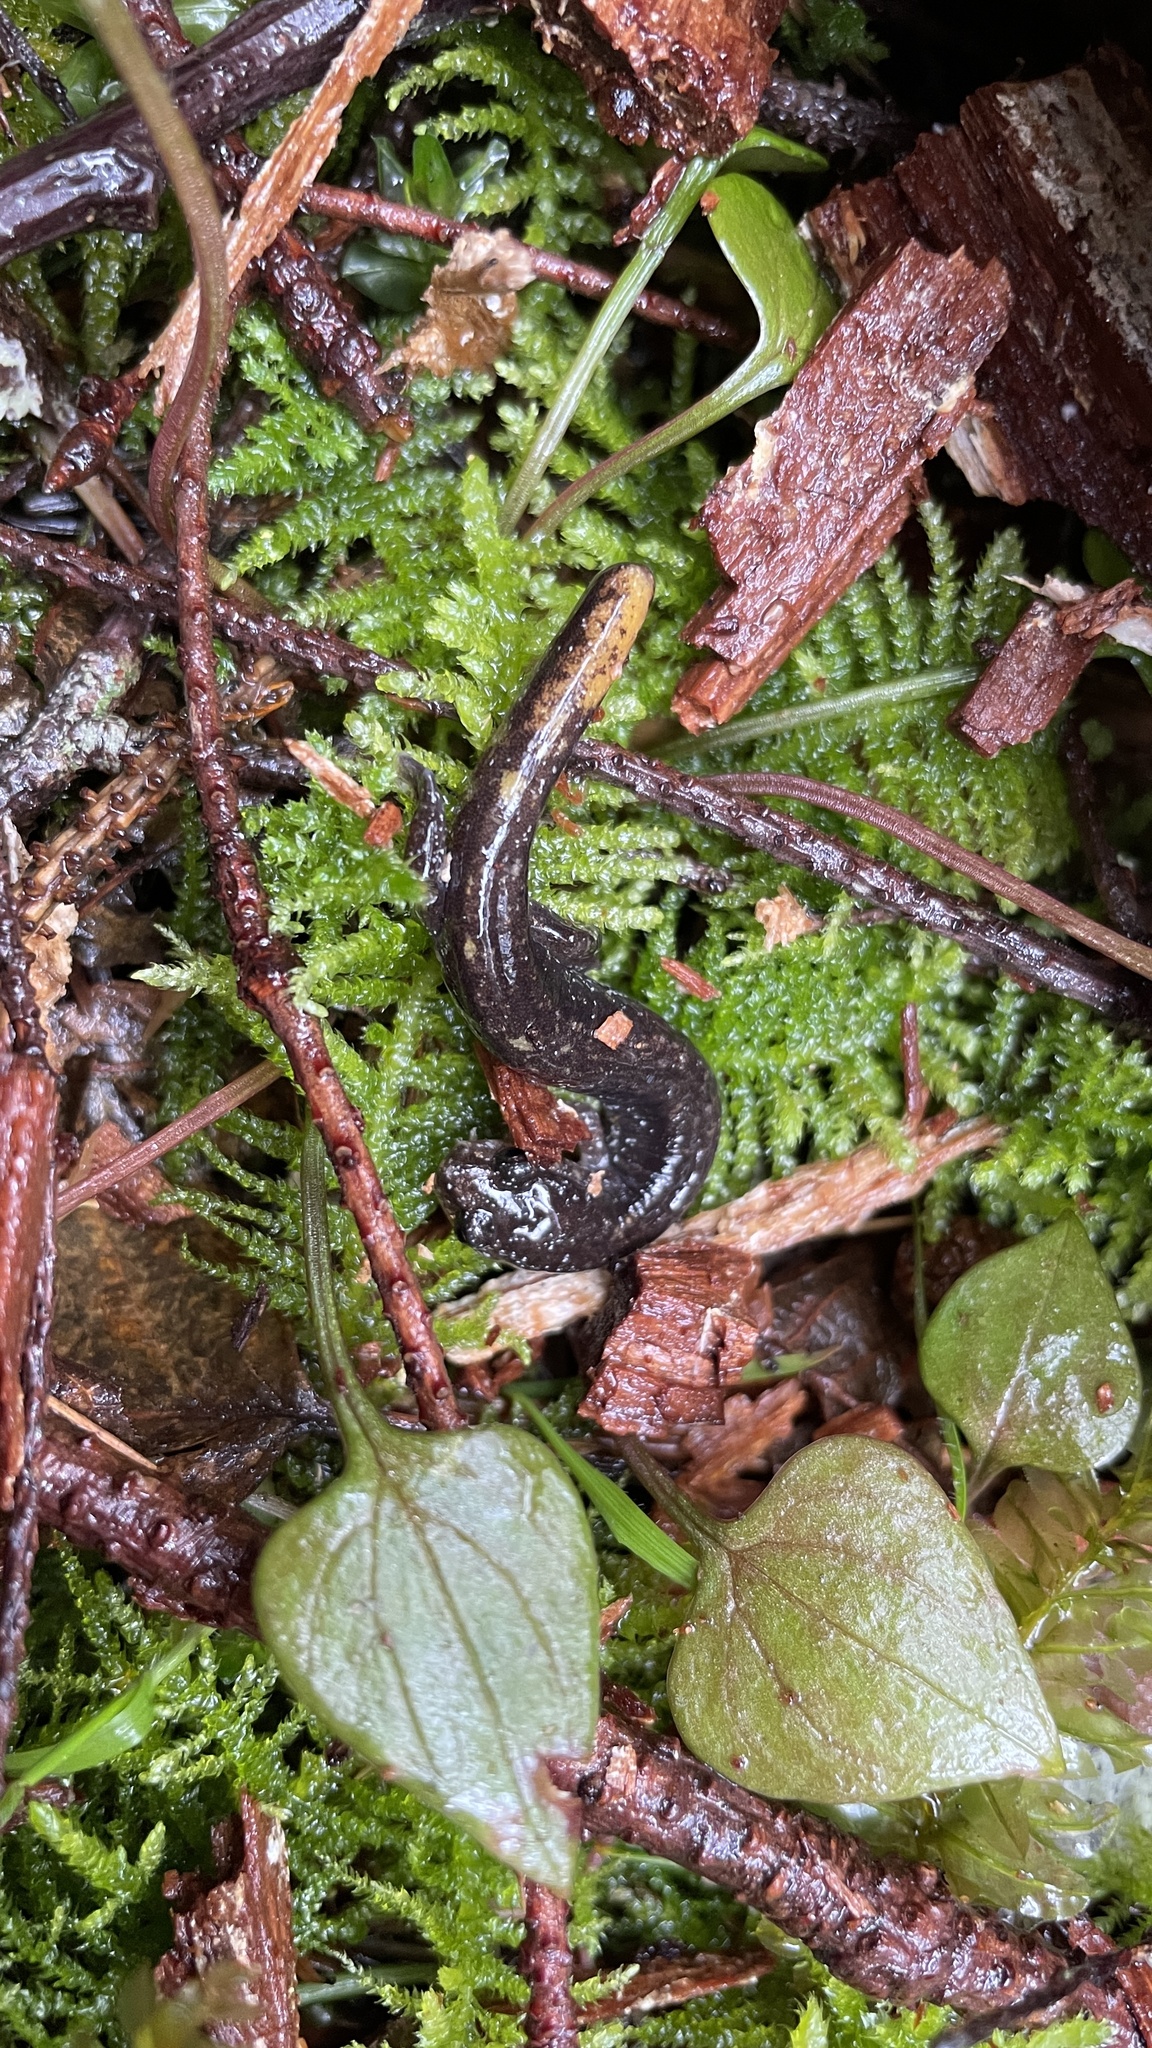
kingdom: Animalia
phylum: Chordata
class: Amphibia
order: Caudata
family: Plethodontidae
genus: Plethodon
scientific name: Plethodon dunni
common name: Dunn's salamander
